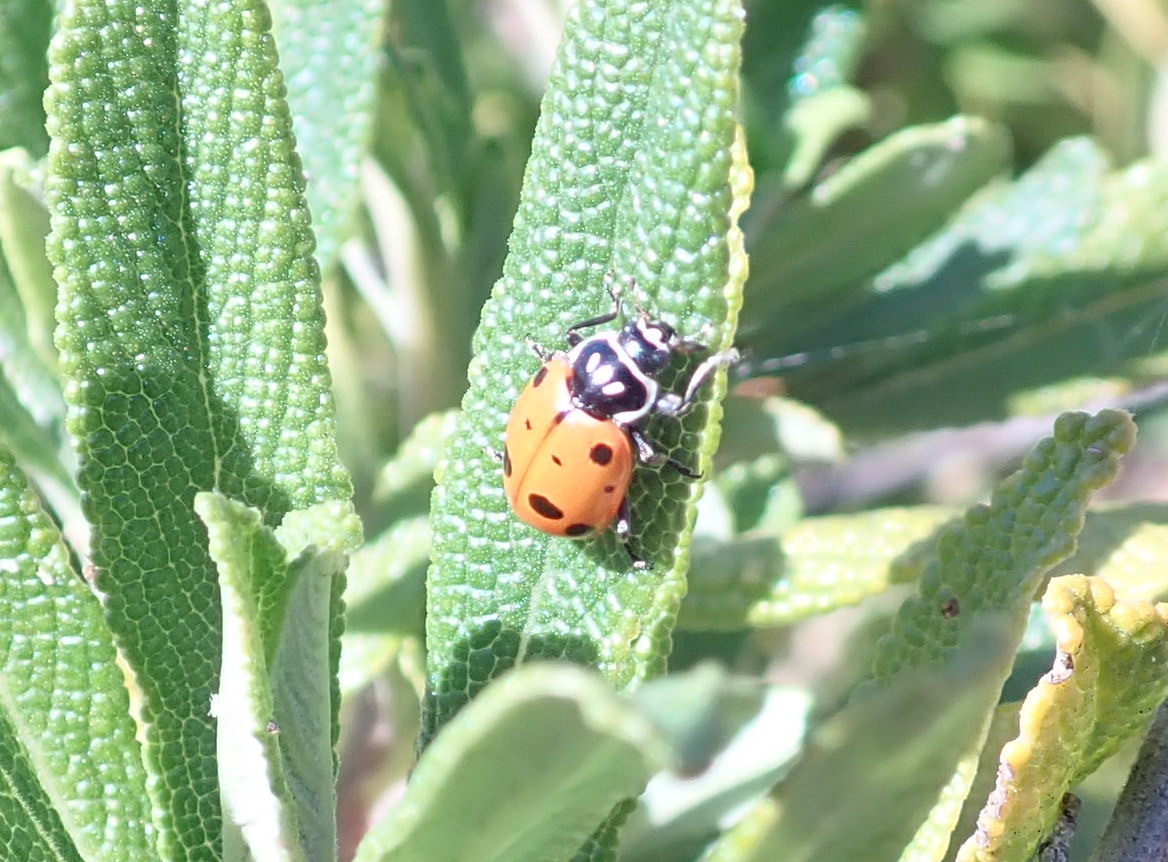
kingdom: Animalia
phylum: Arthropoda
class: Insecta
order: Coleoptera
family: Coccinellidae
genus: Hippodamia
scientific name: Hippodamia convergens
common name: Convergent lady beetle
